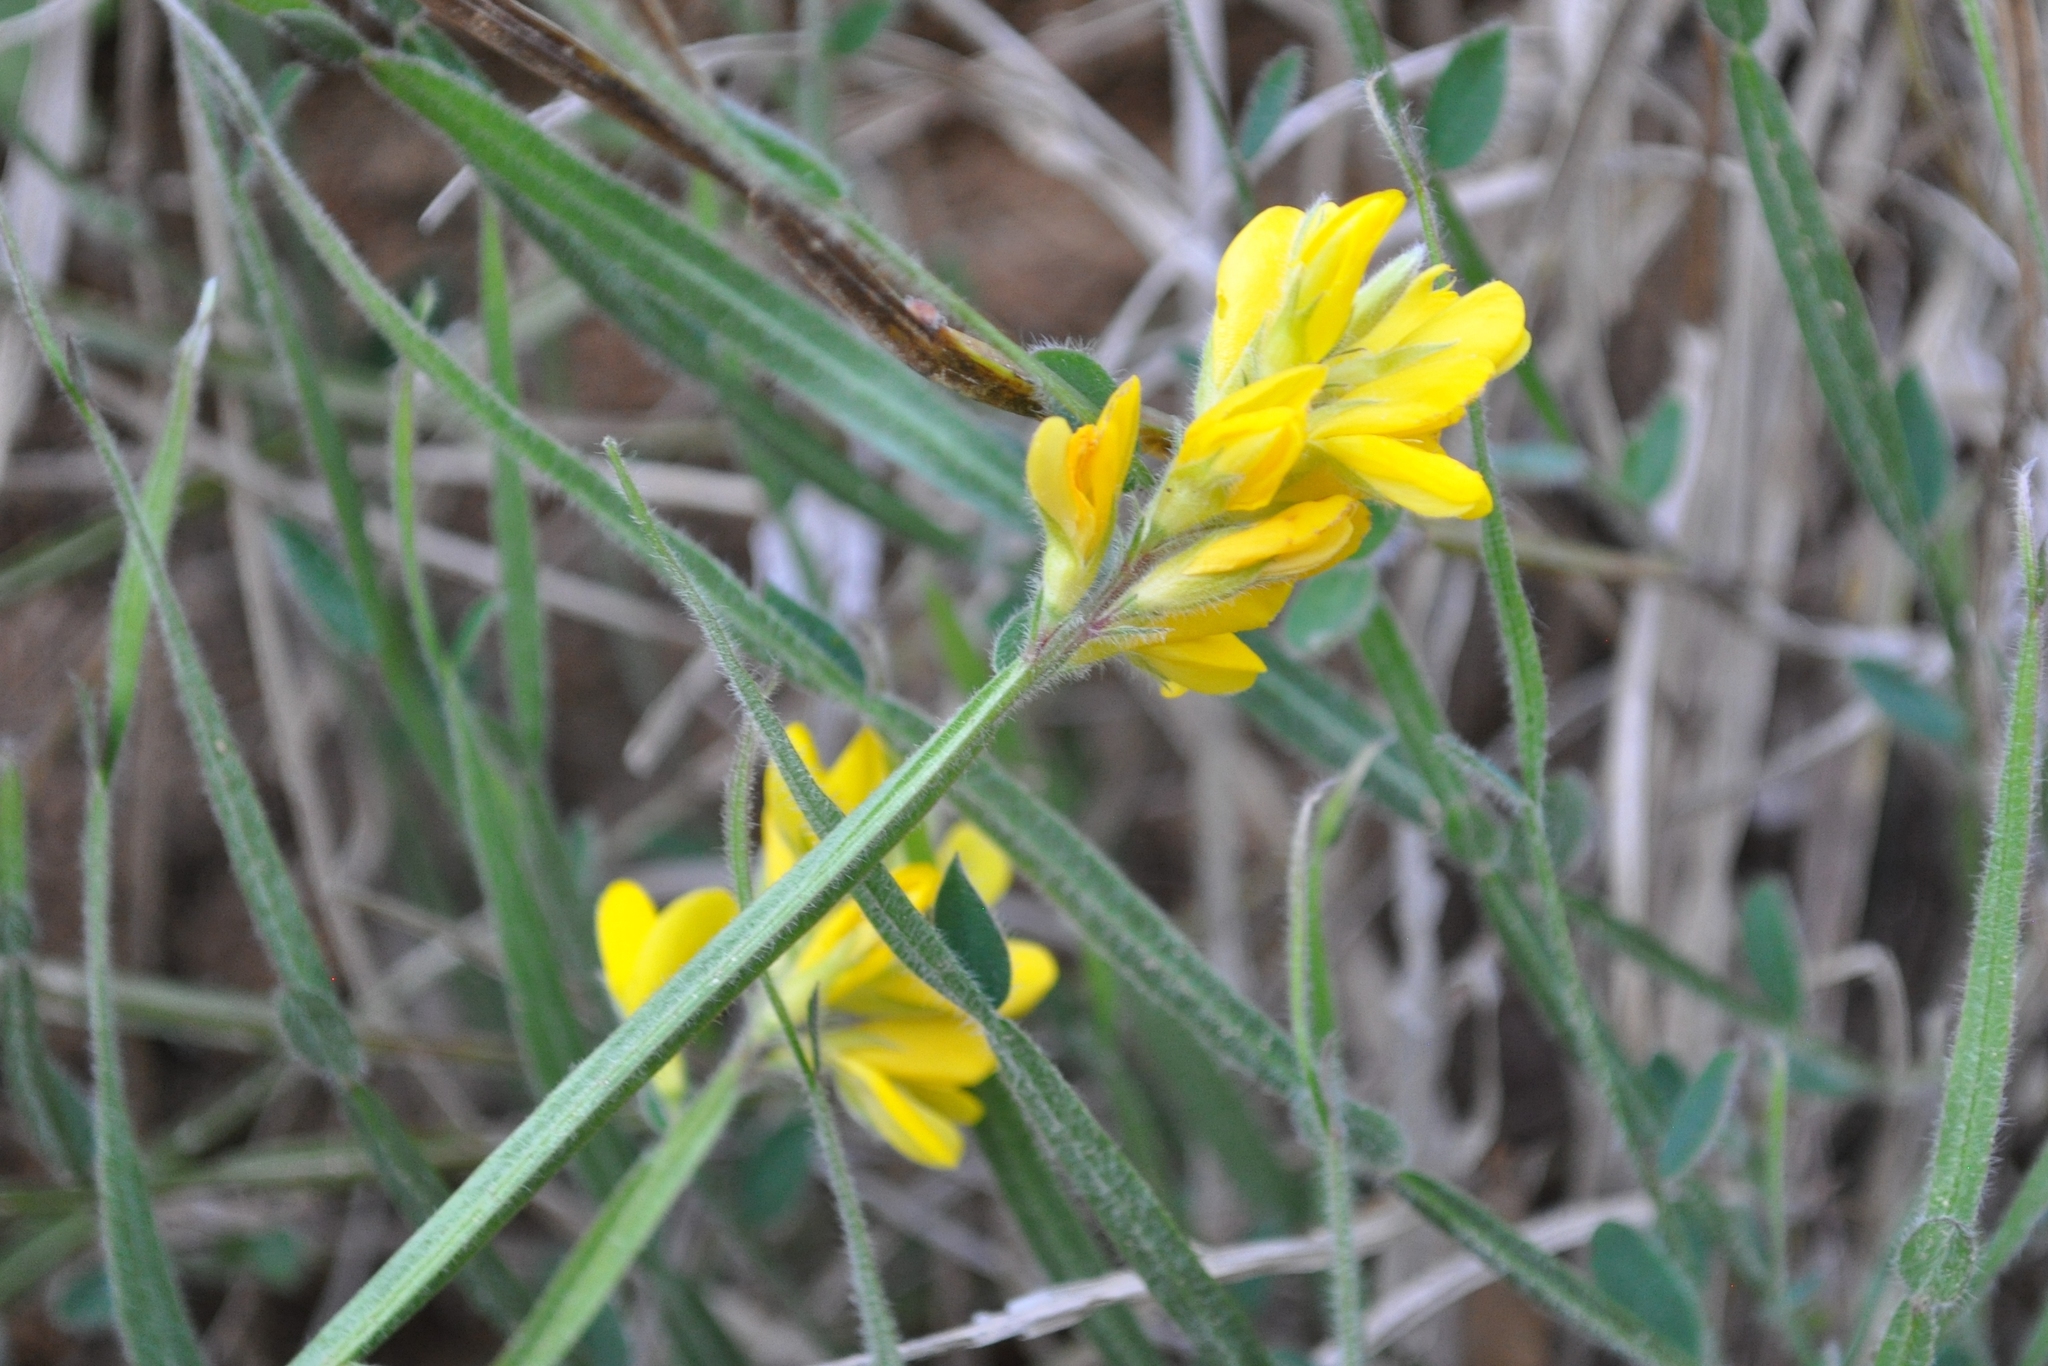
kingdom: Plantae
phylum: Tracheophyta
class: Magnoliopsida
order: Fabales
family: Fabaceae
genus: Genista
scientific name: Genista sagittalis
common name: Winged greenweed
